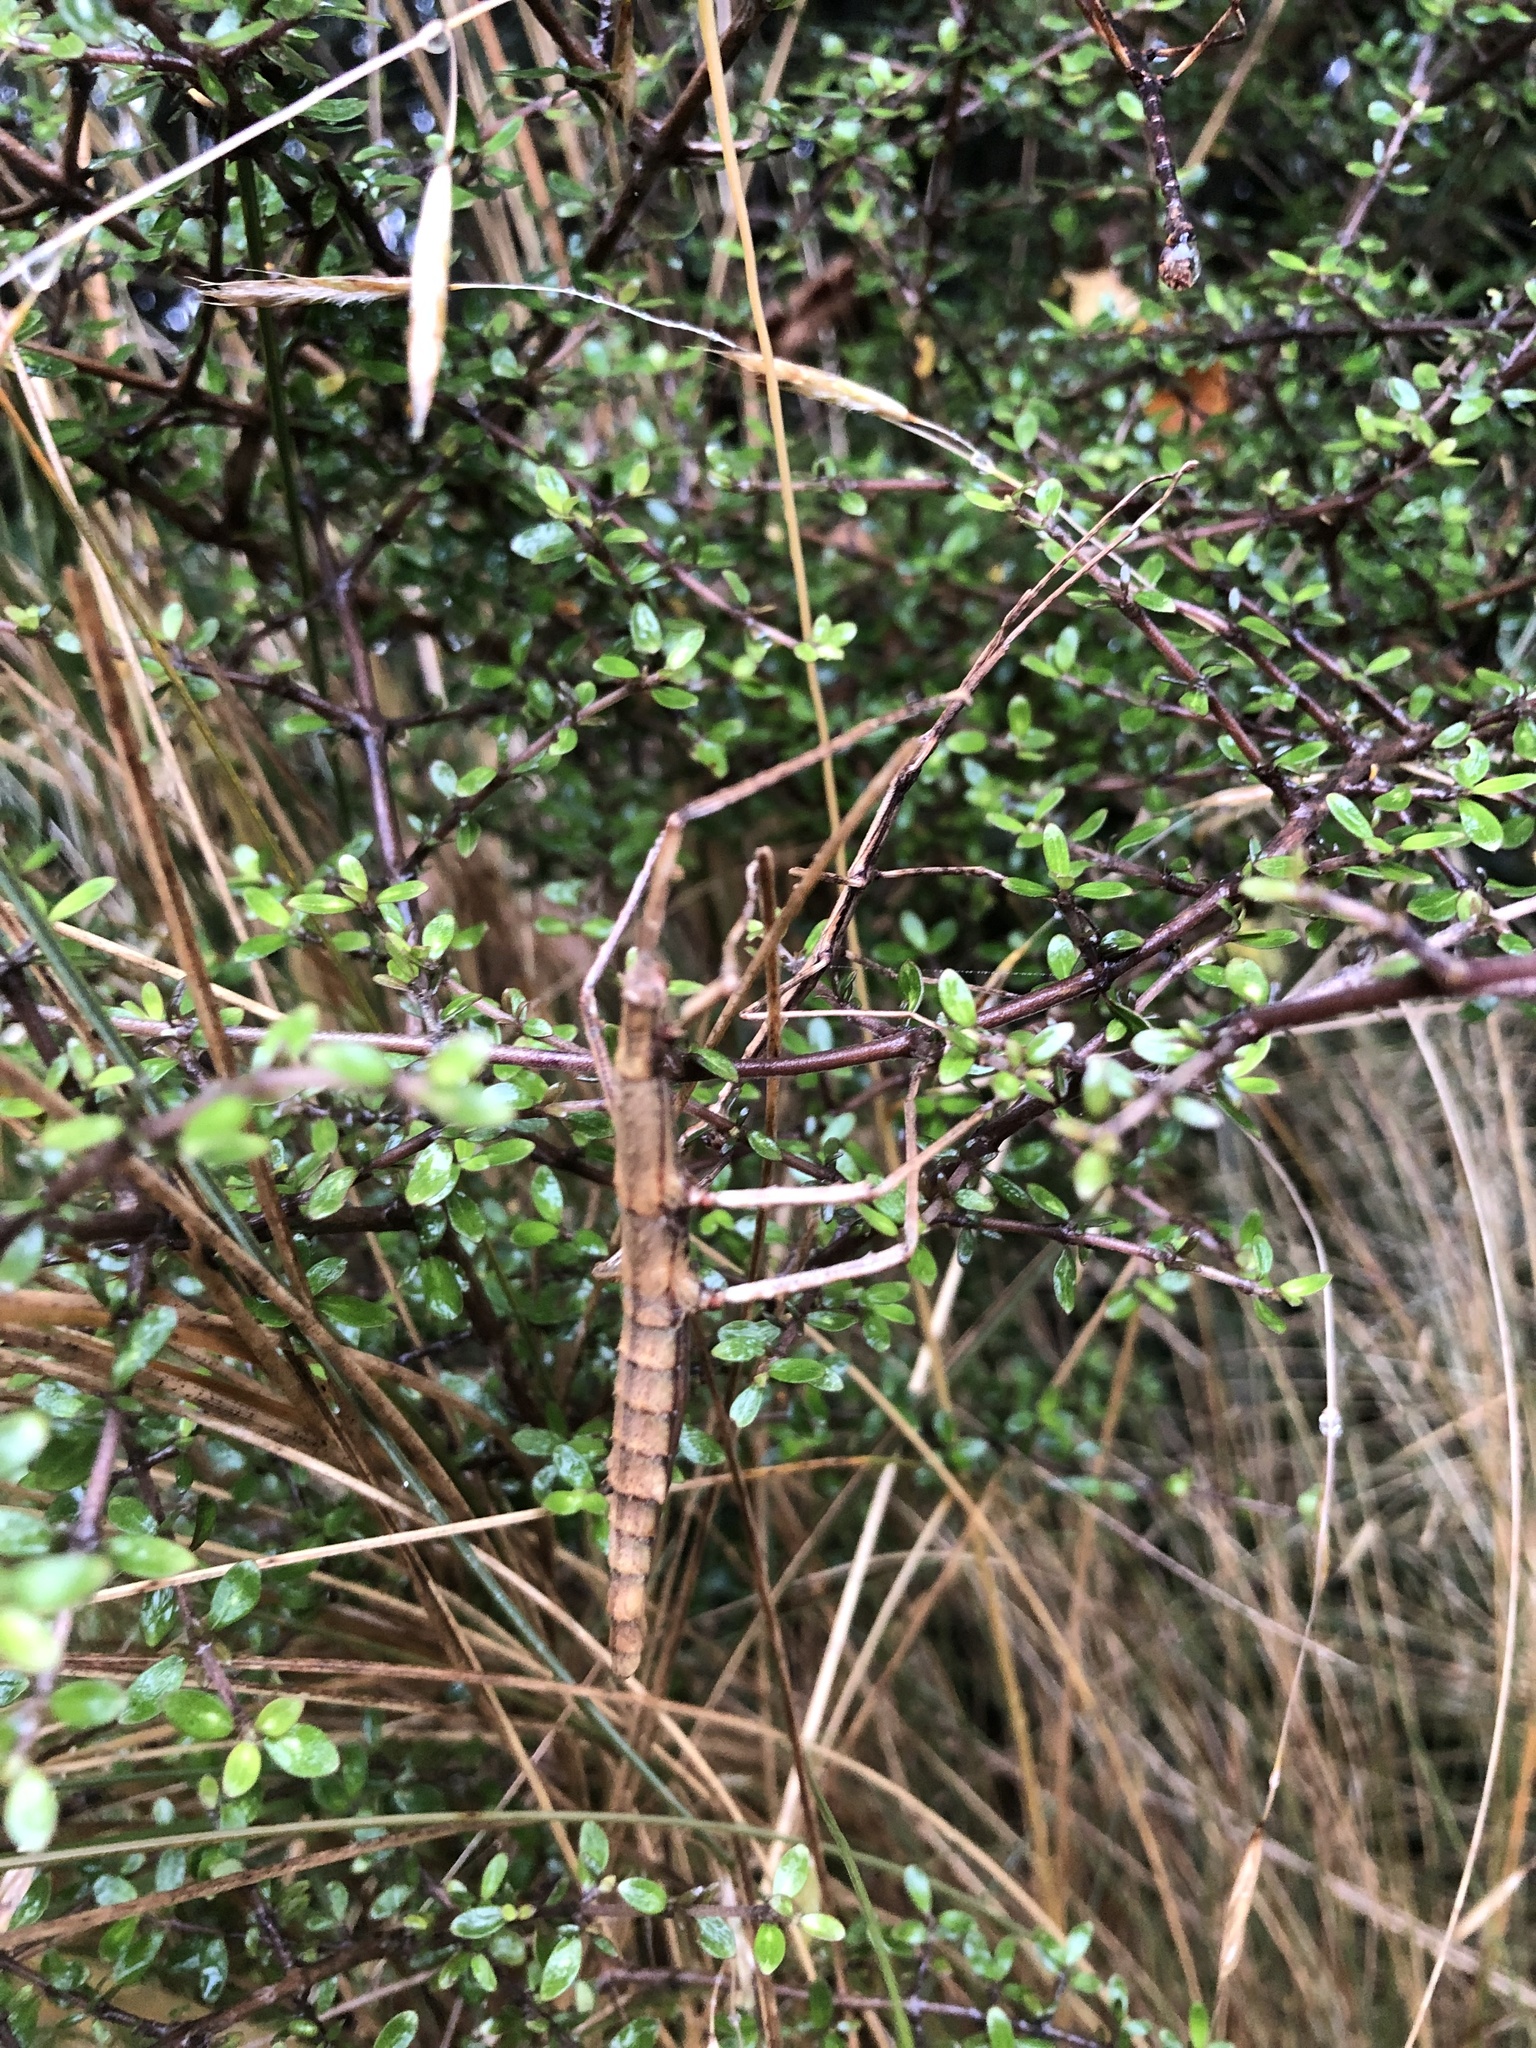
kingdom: Animalia
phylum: Arthropoda
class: Insecta
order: Phasmida
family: Phasmatidae
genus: Niveaphasma
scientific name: Niveaphasma annulatum
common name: Hutton's stick insect
